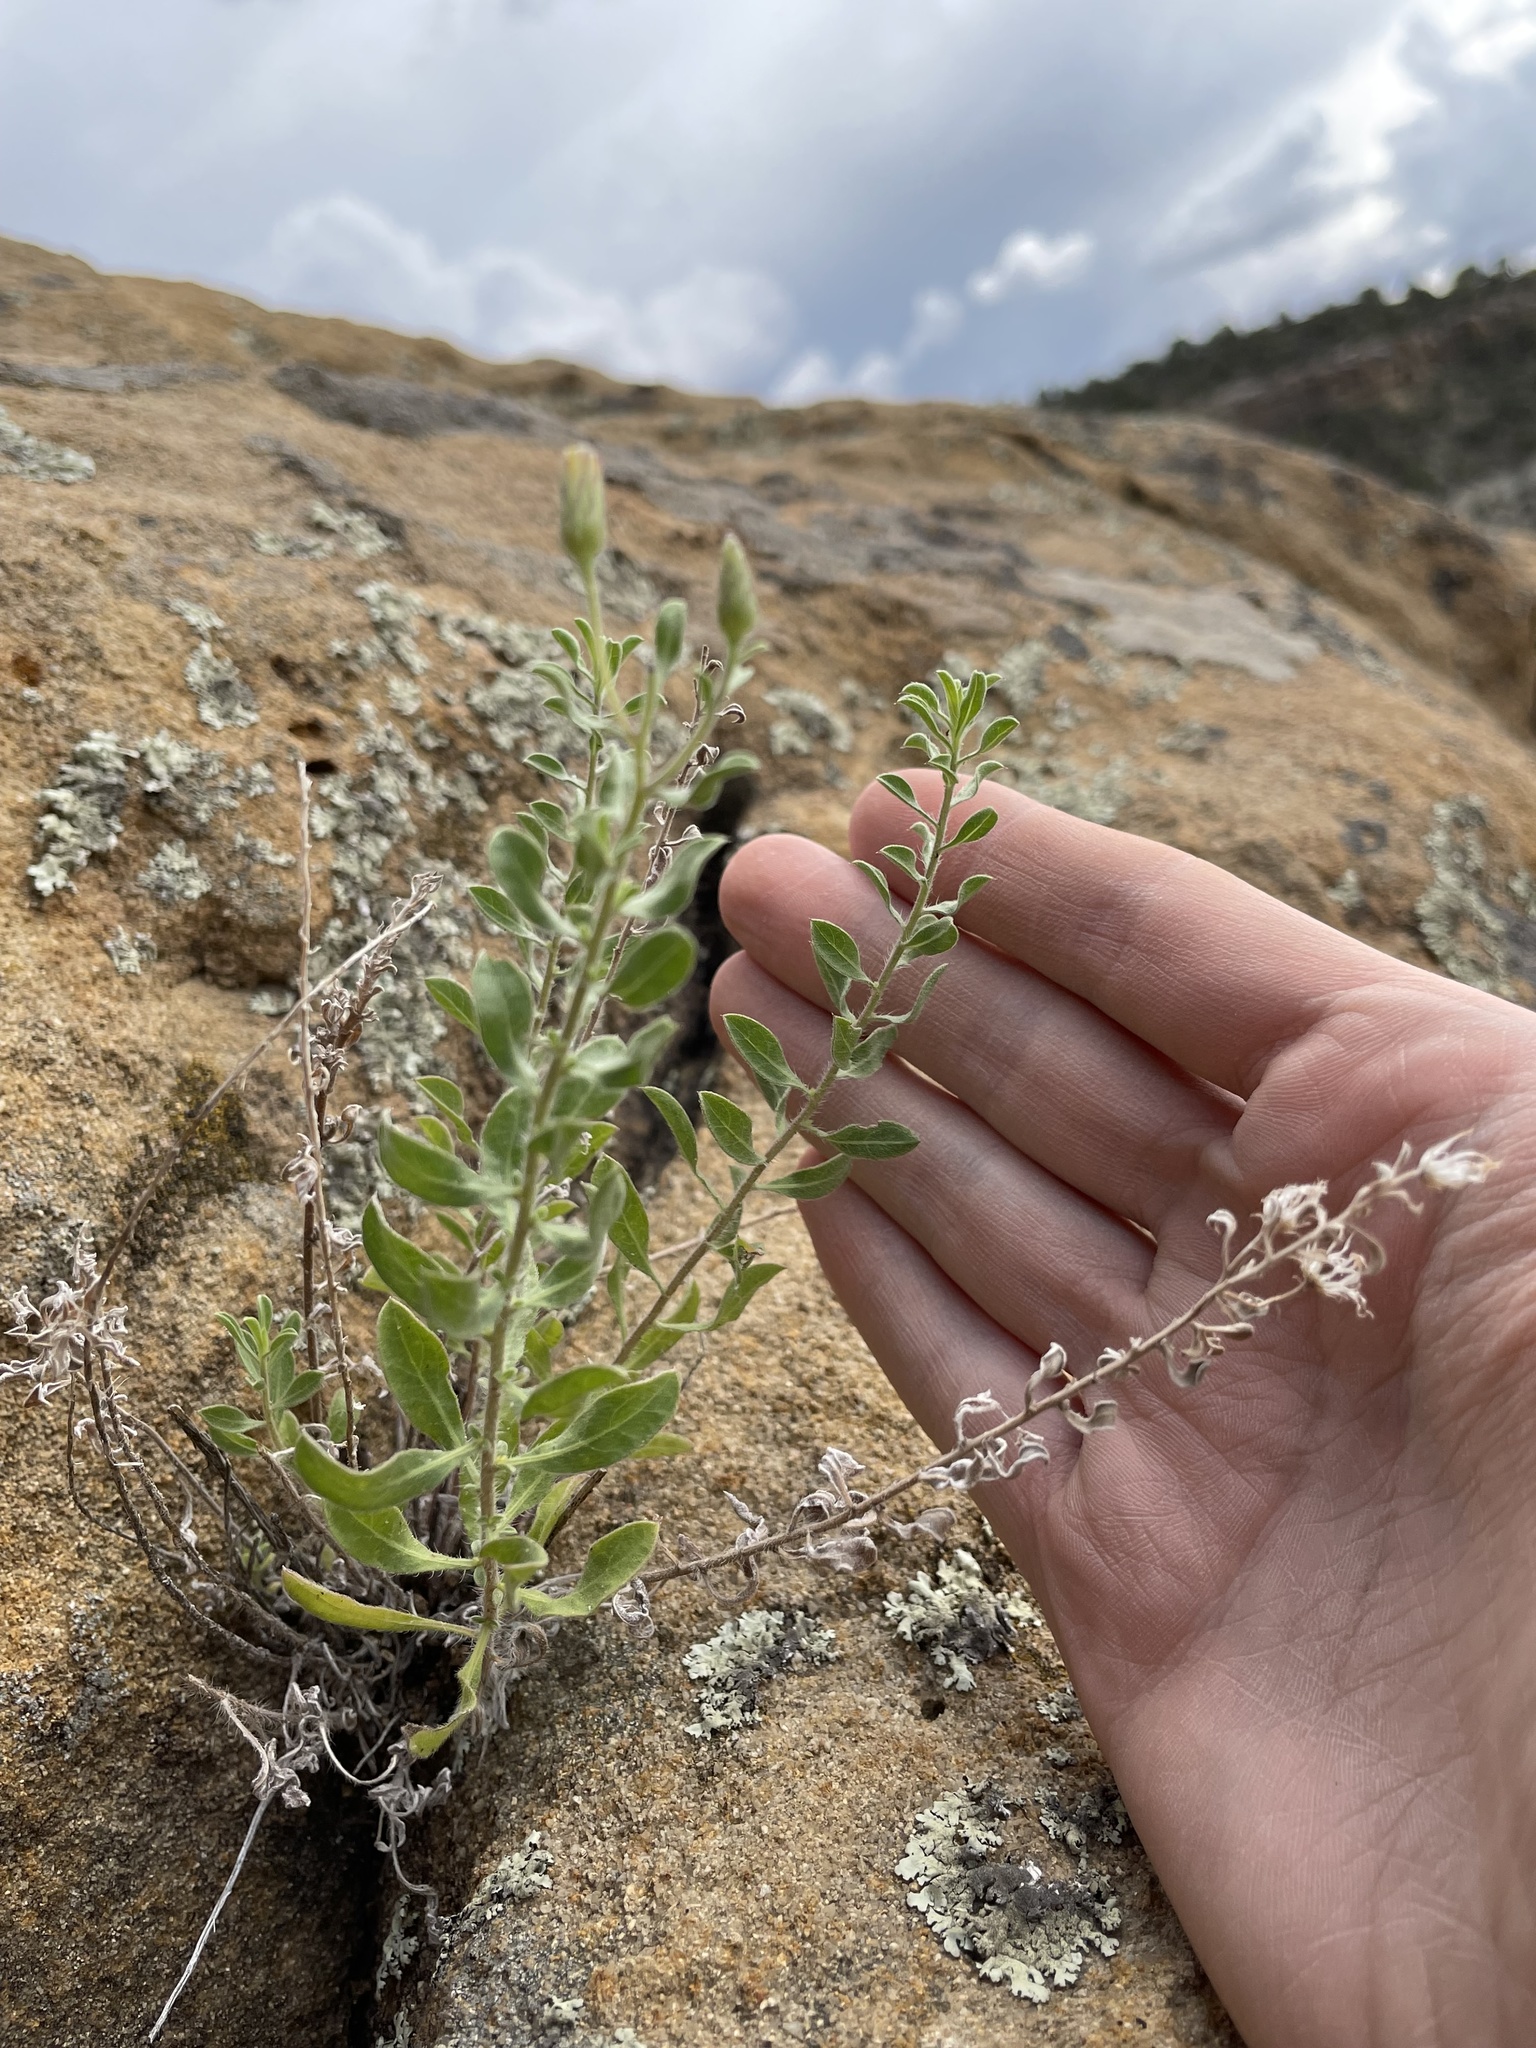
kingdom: Plantae
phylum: Tracheophyta
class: Magnoliopsida
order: Asterales
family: Asteraceae
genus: Heterotheca
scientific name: Heterotheca hirsutissima
